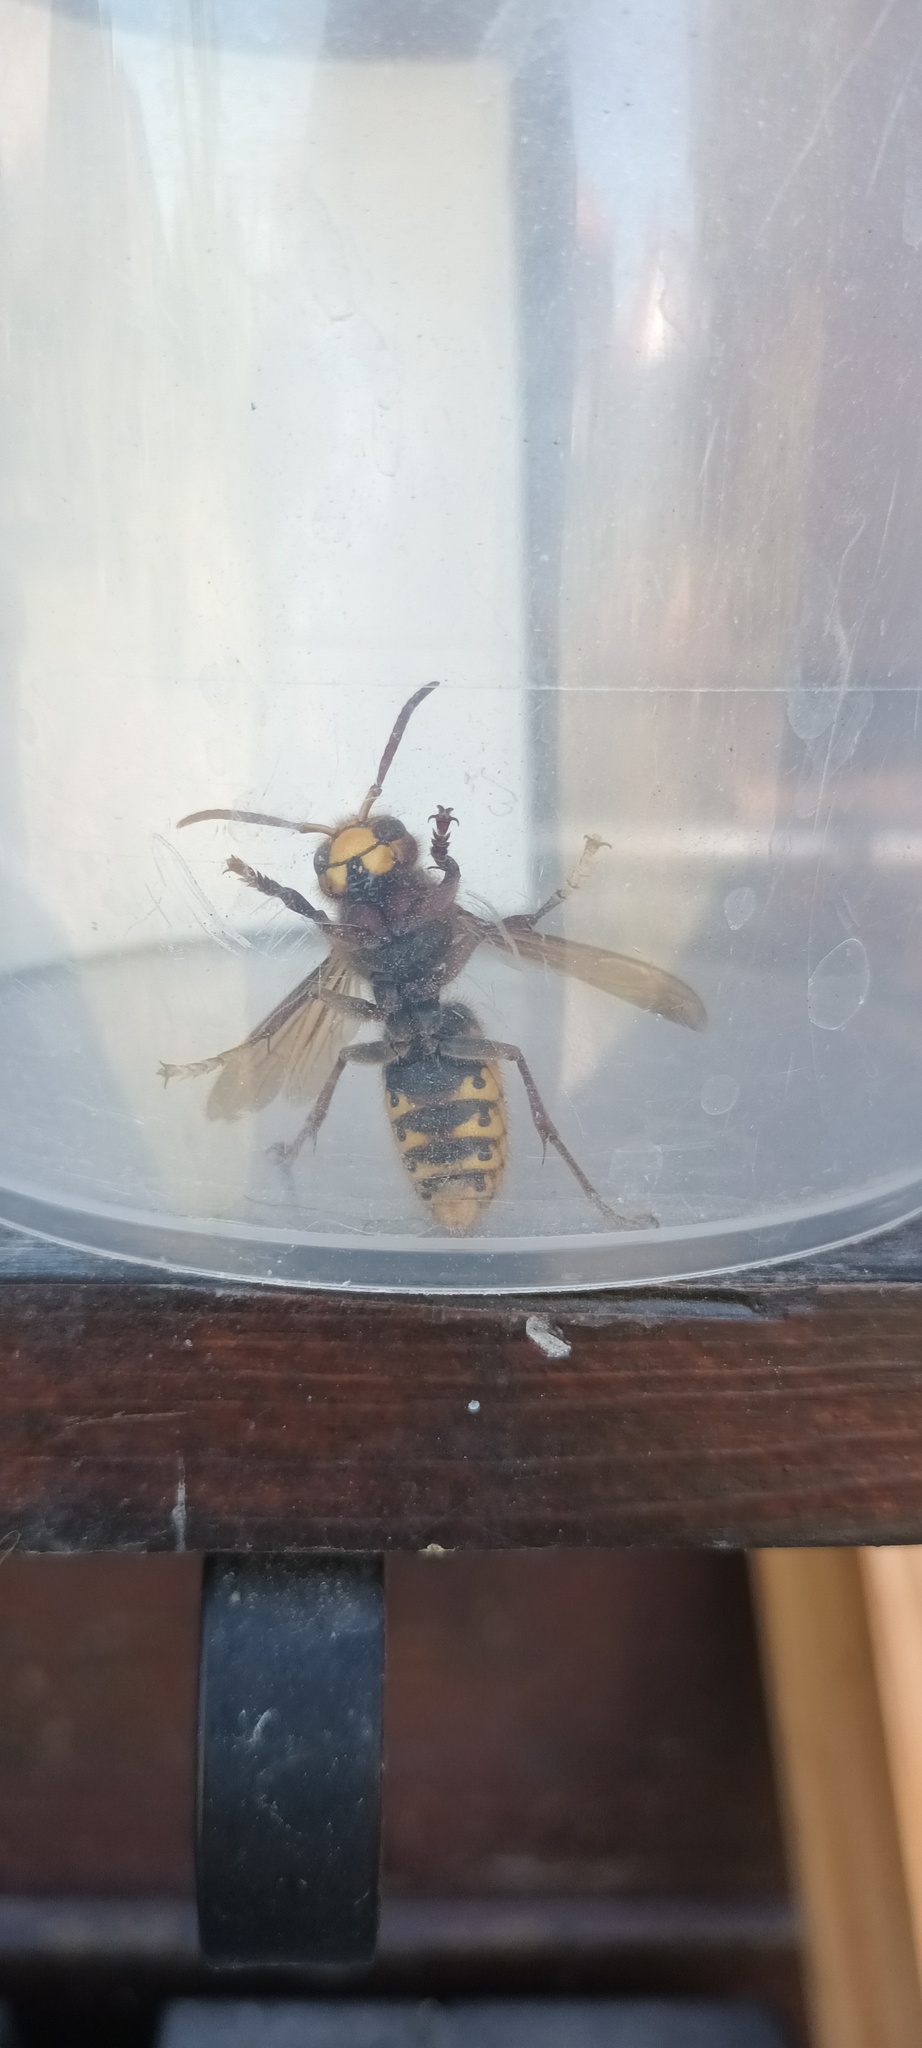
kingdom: Animalia
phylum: Arthropoda
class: Insecta
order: Hymenoptera
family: Vespidae
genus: Vespa
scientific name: Vespa crabro
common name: Hornet
